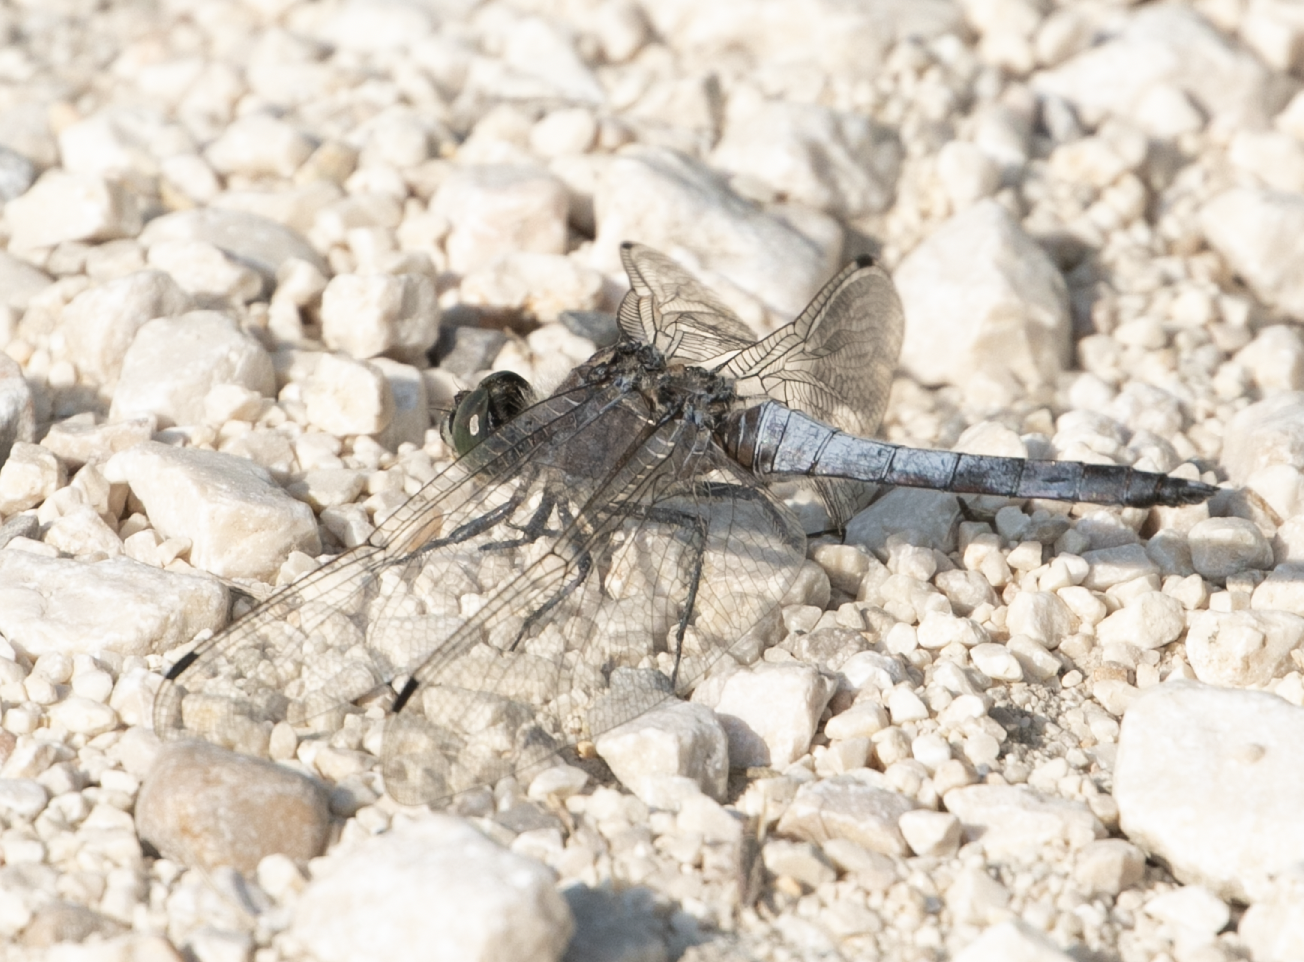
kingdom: Animalia
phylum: Arthropoda
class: Insecta
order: Odonata
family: Libellulidae
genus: Orthetrum
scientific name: Orthetrum cancellatum
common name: Black-tailed skimmer
